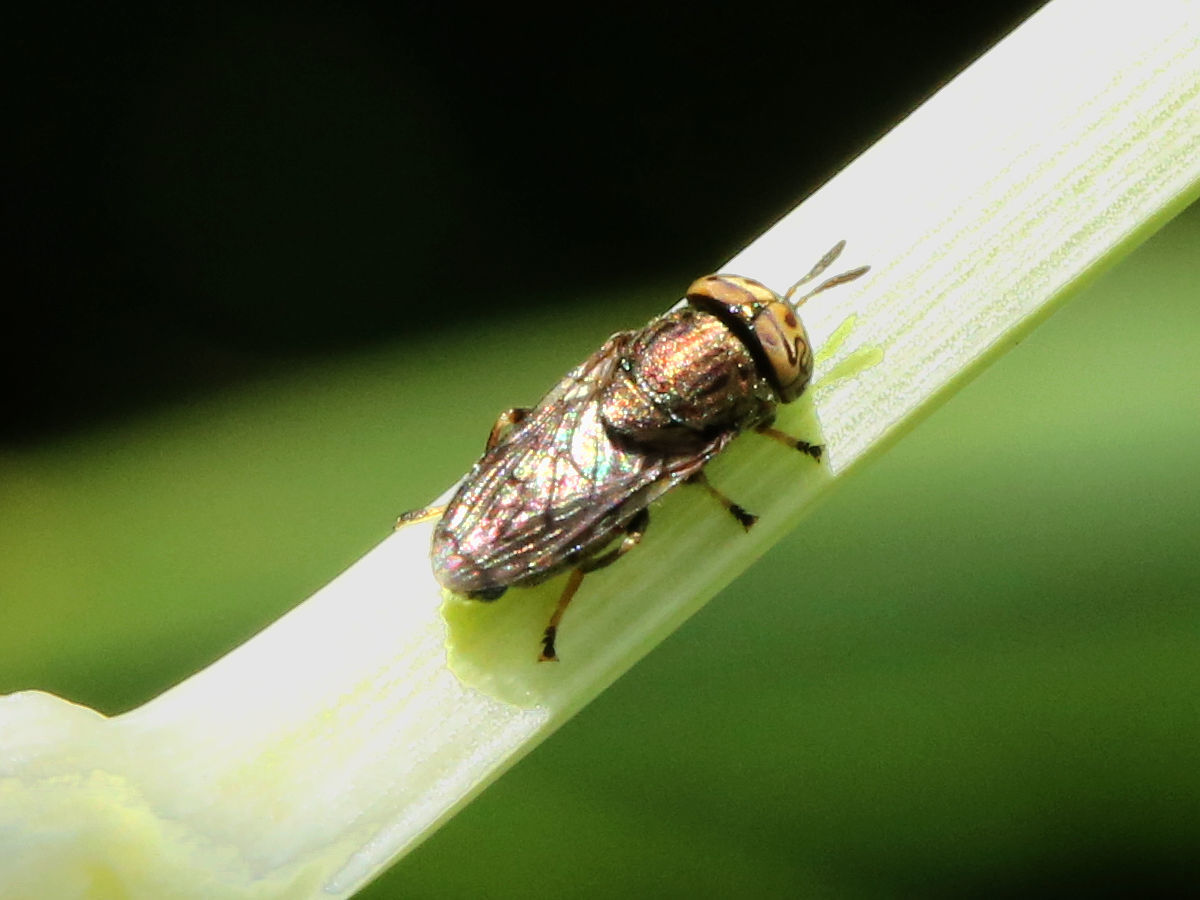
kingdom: Animalia
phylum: Arthropoda
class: Insecta
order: Diptera
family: Syrphidae
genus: Orthonevra
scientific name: Orthonevra nitida
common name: Wavy mucksucker
